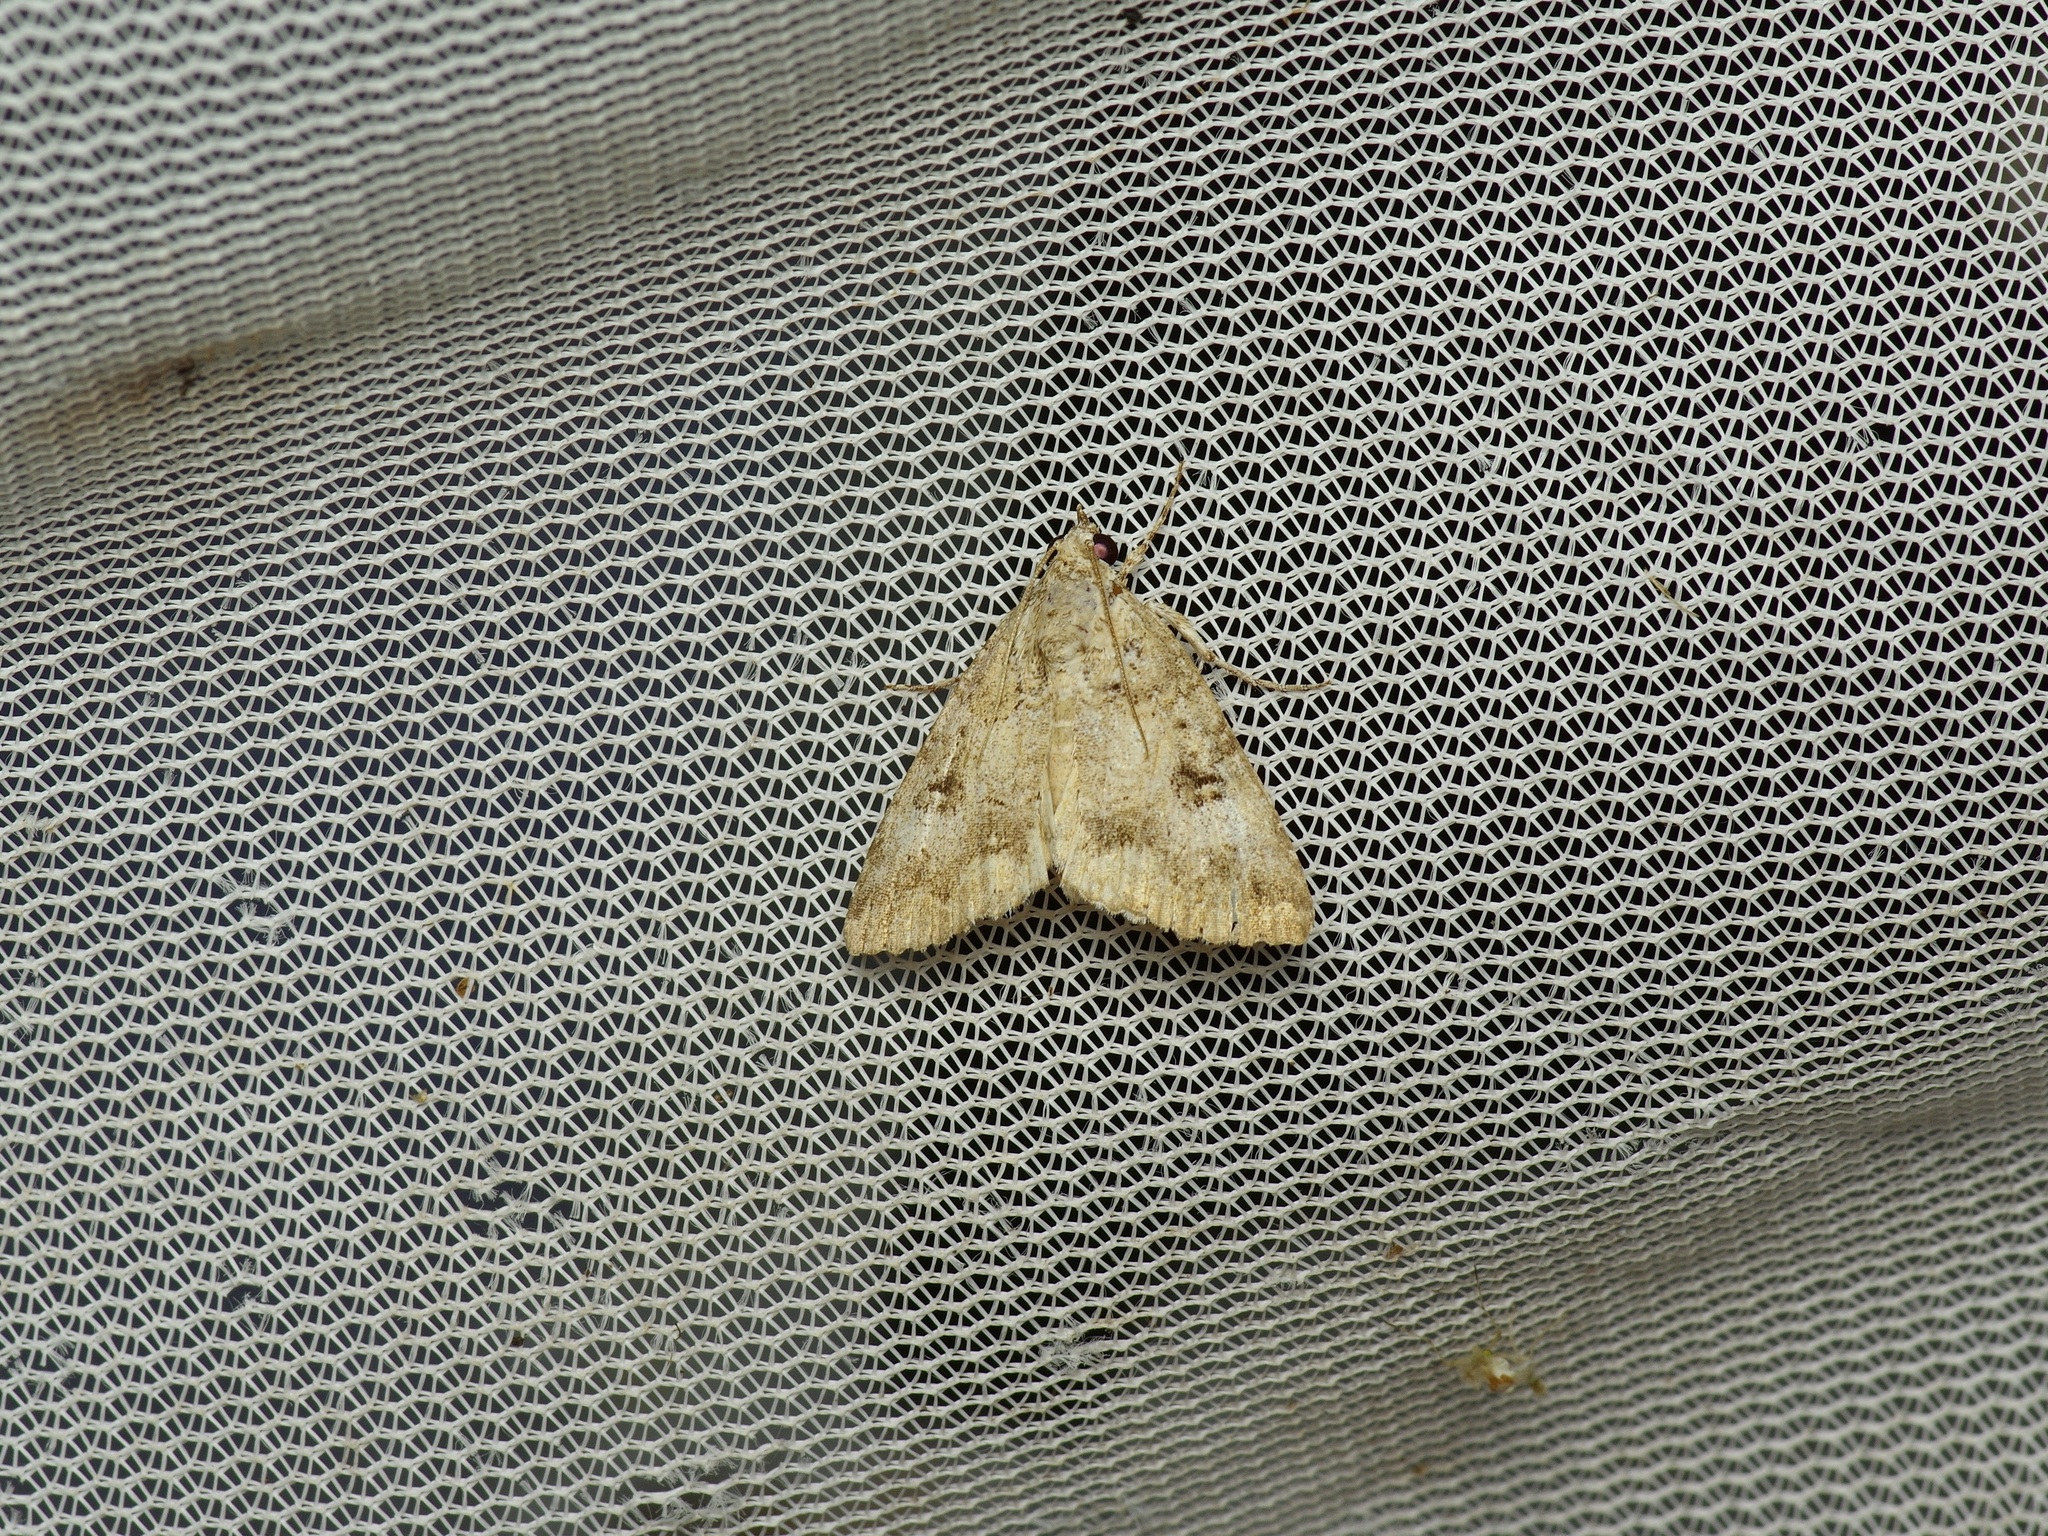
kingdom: Animalia
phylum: Arthropoda
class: Insecta
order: Lepidoptera
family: Erebidae
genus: Eubolina
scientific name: Eubolina impartialis
